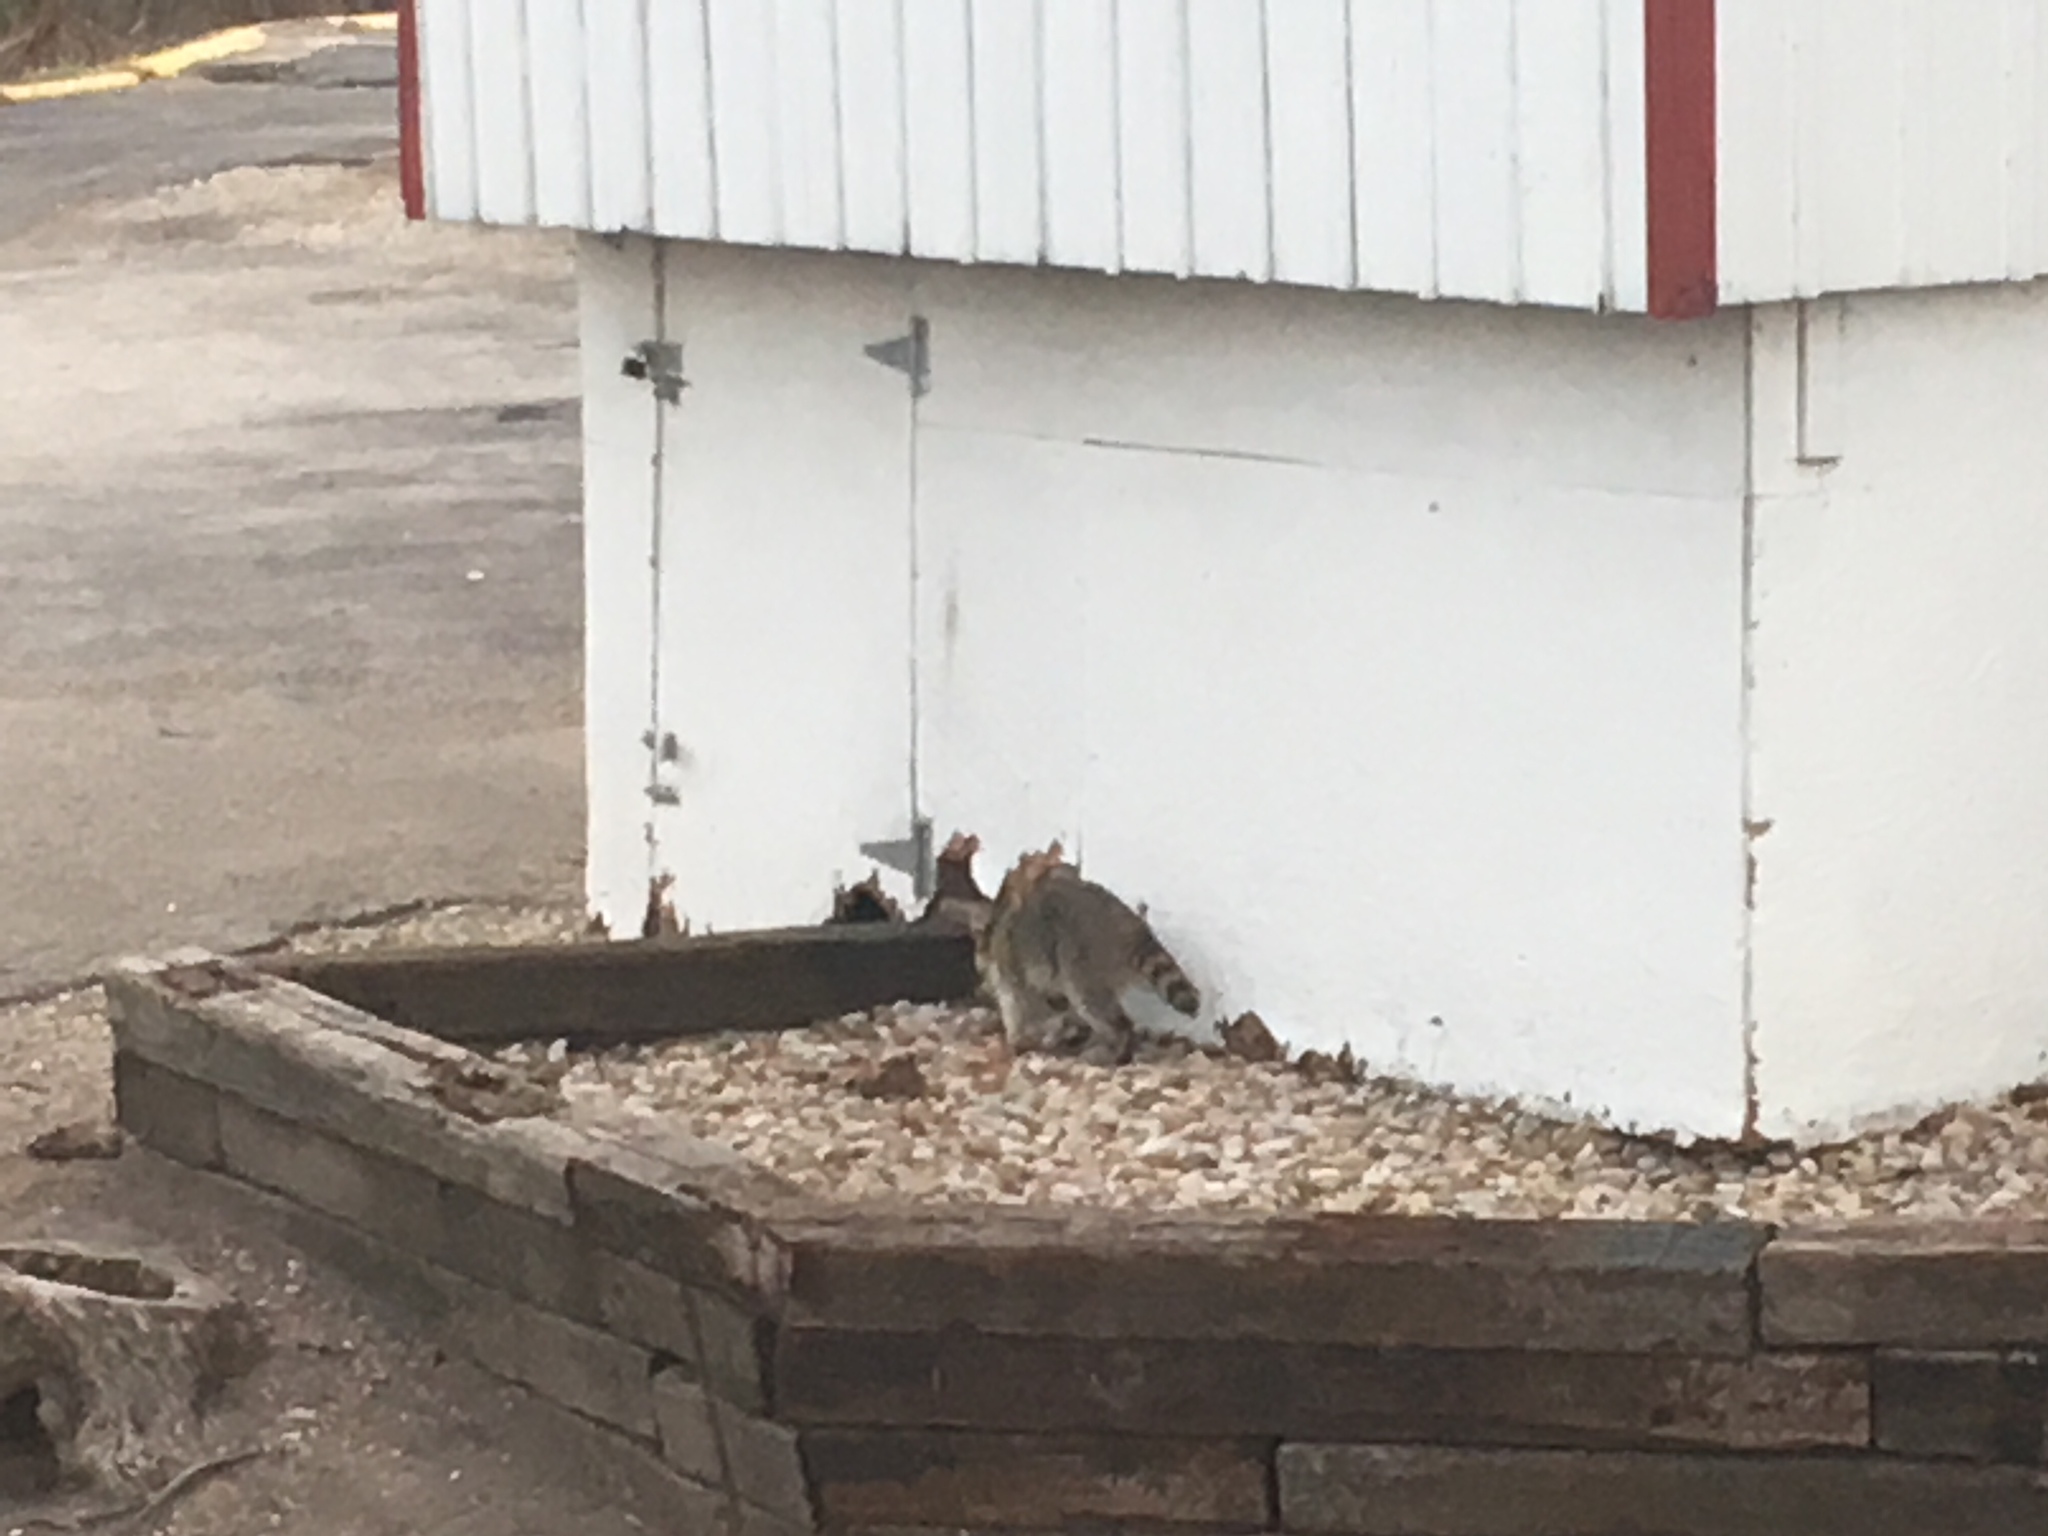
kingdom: Animalia
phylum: Chordata
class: Mammalia
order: Carnivora
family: Procyonidae
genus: Procyon
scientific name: Procyon lotor
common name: Raccoon
